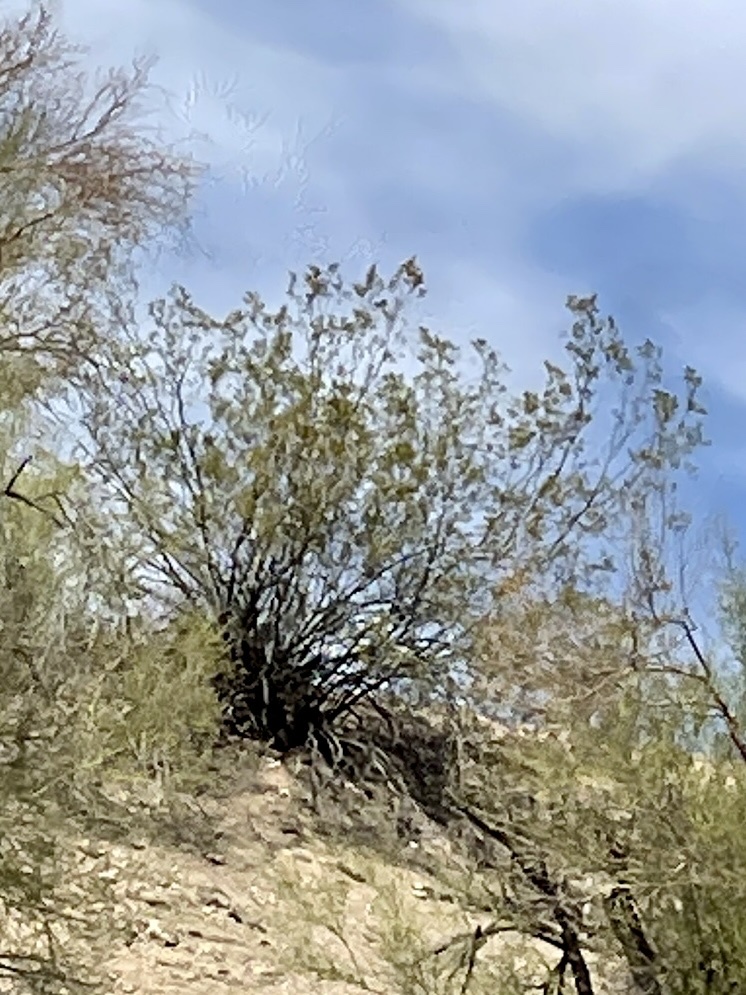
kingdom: Plantae
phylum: Tracheophyta
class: Magnoliopsida
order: Zygophyllales
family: Zygophyllaceae
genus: Larrea
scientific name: Larrea tridentata
